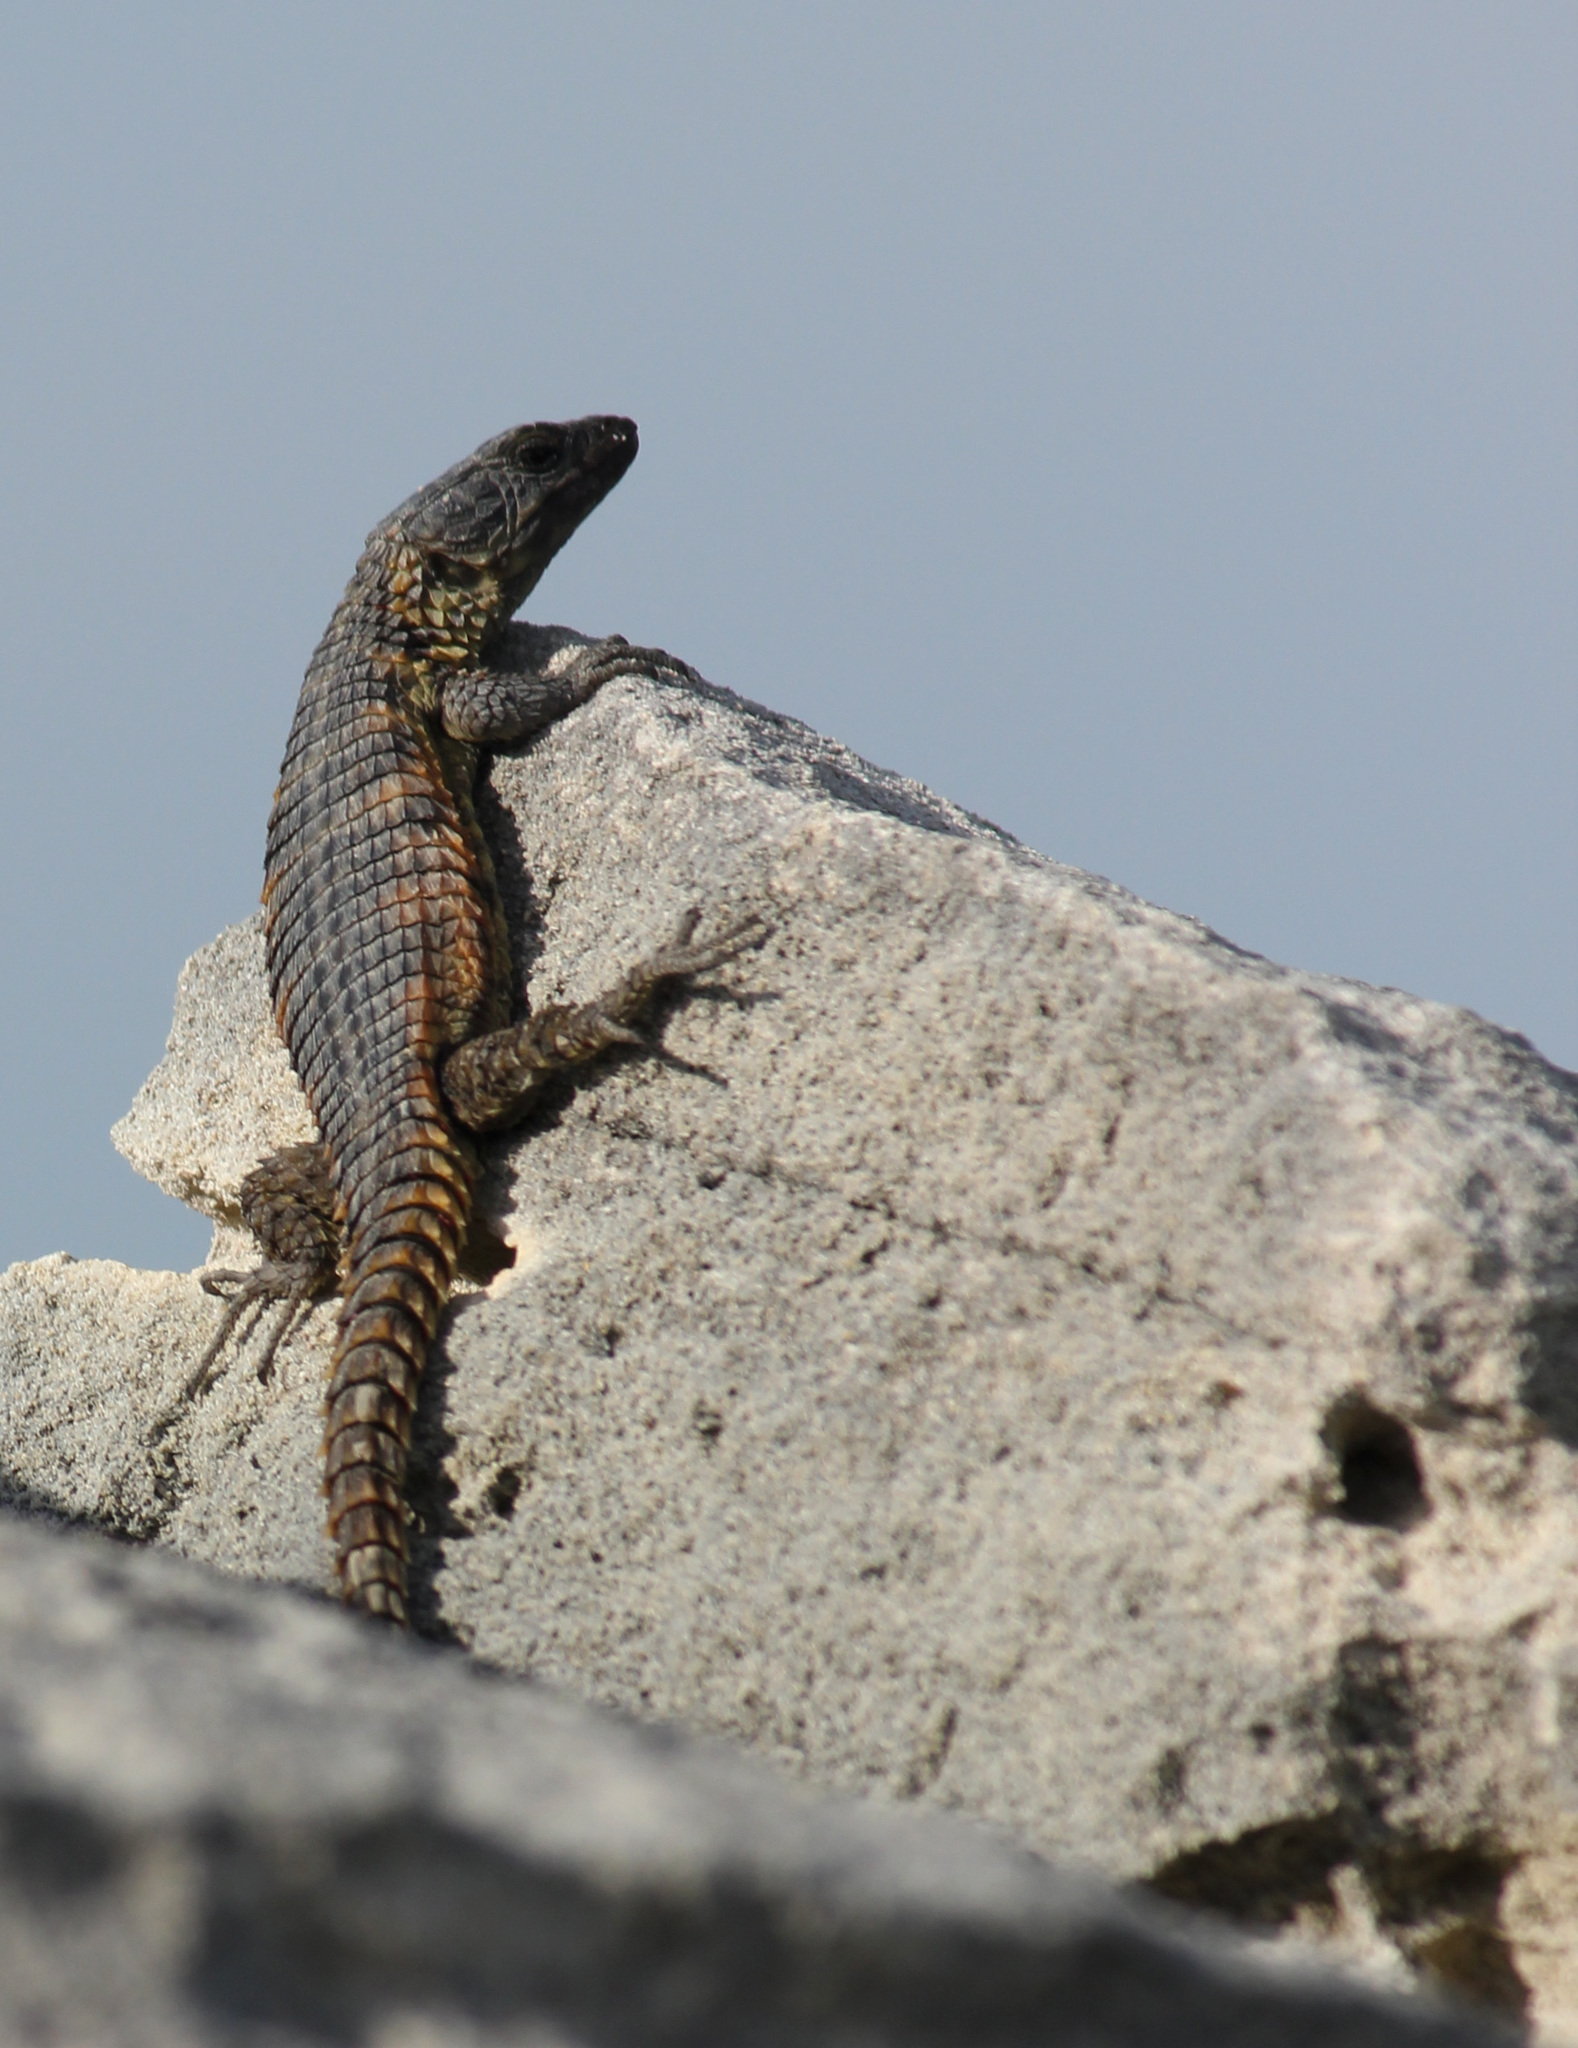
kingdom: Animalia
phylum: Chordata
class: Squamata
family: Cordylidae
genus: Cordylus
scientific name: Cordylus cordylus
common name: Cape girdled lizard
